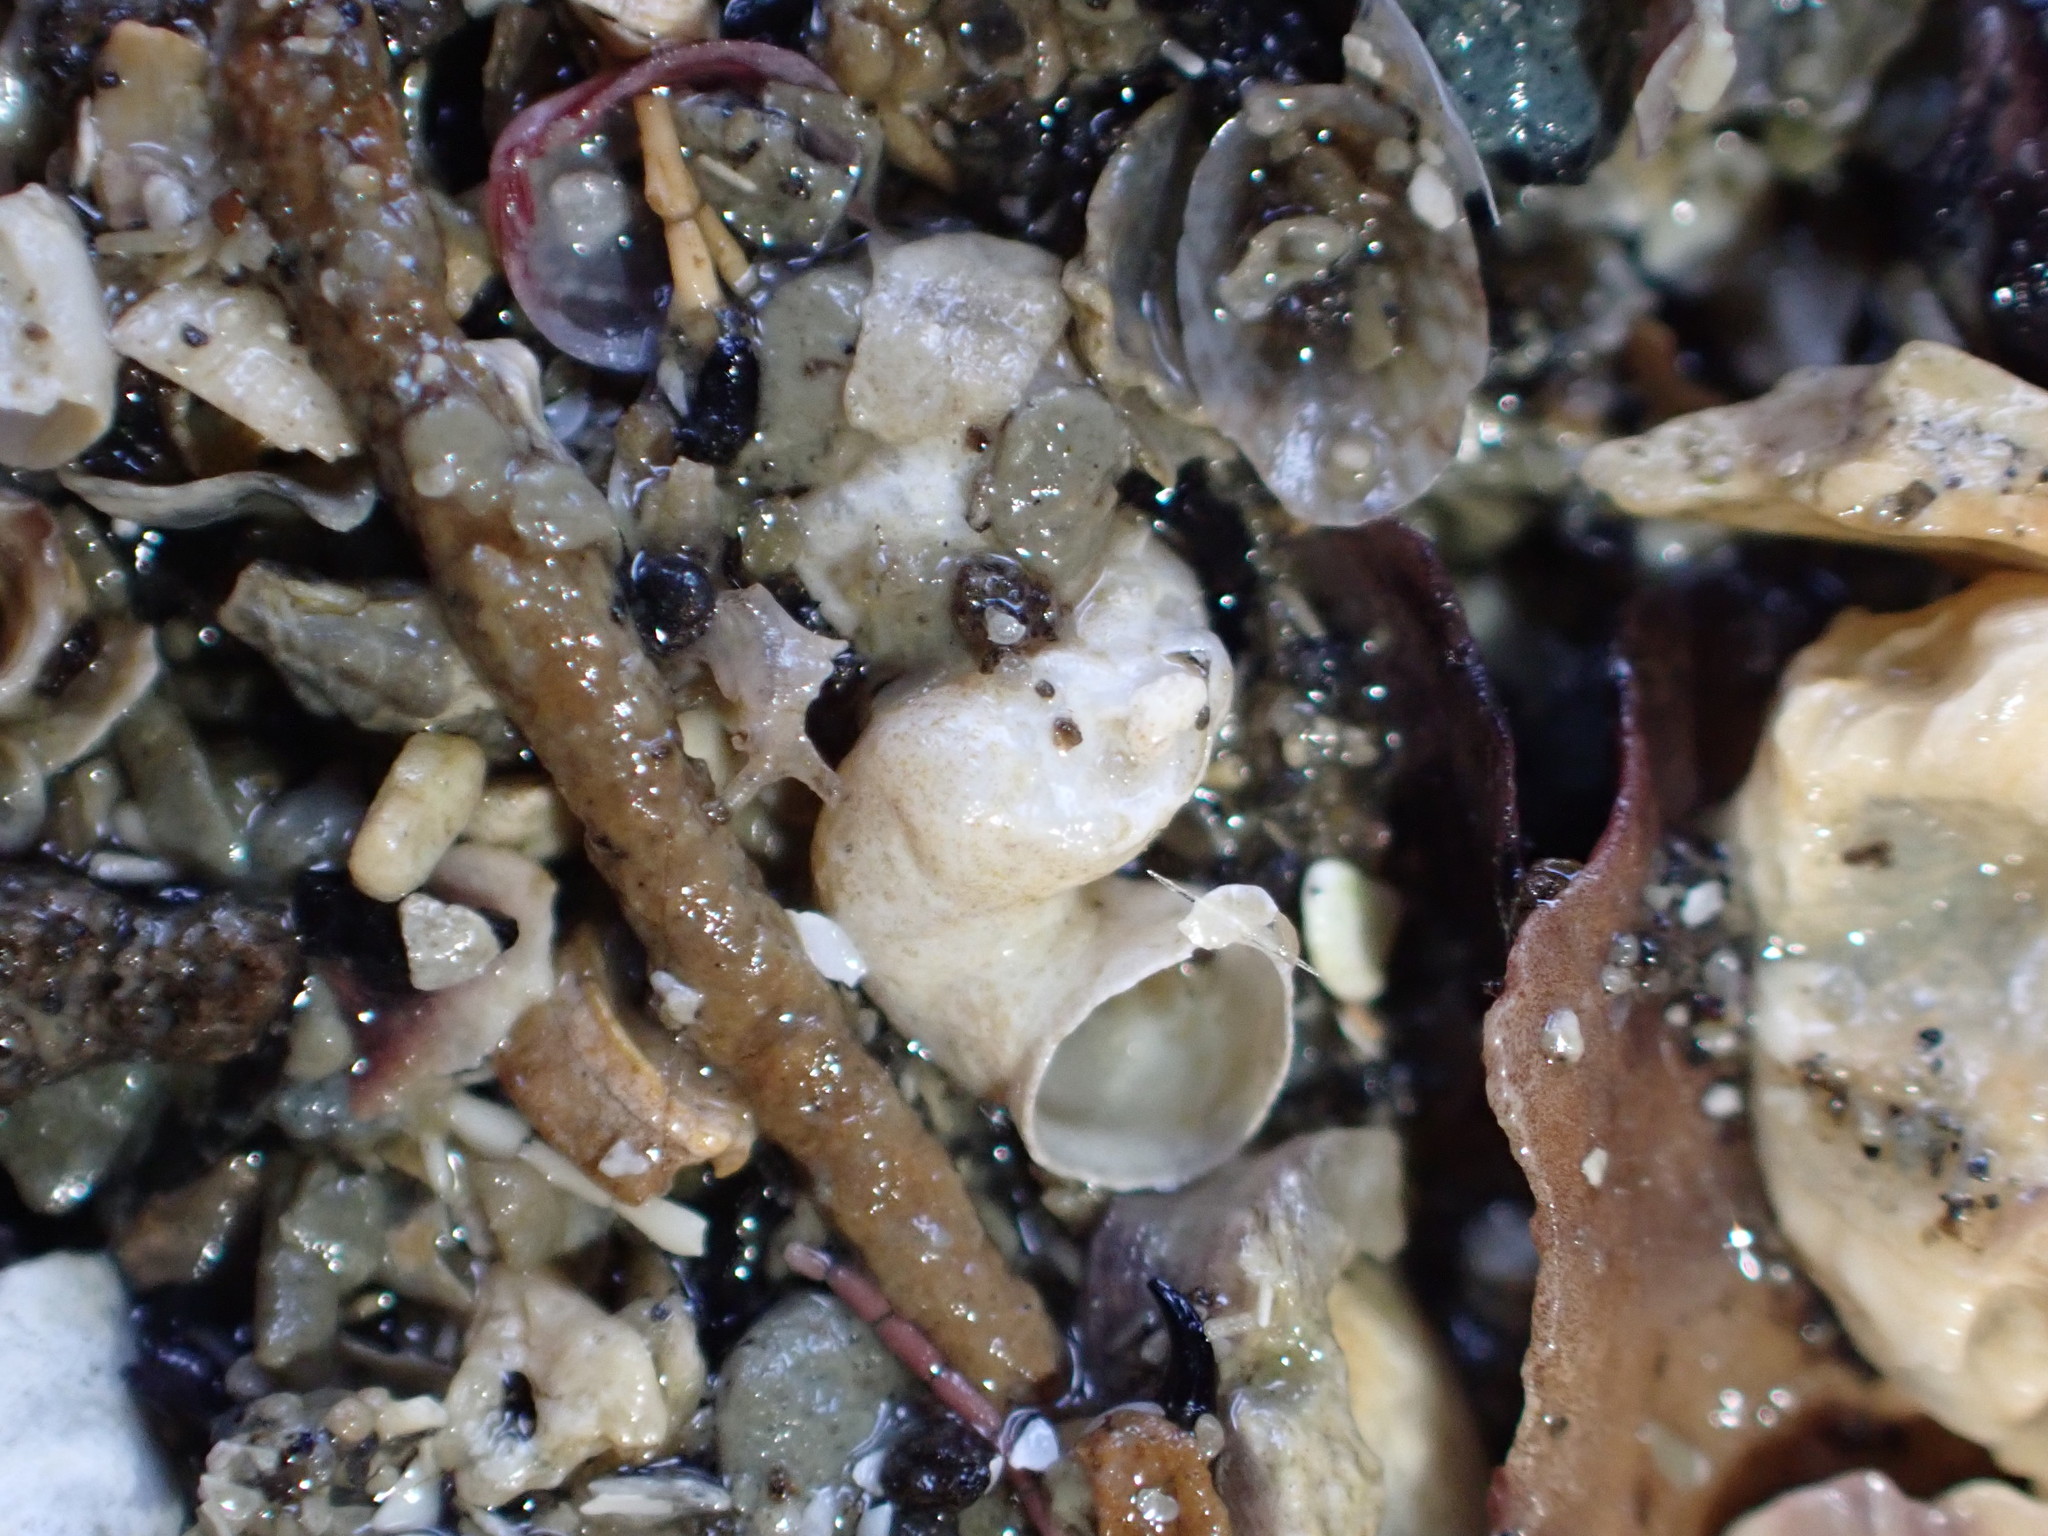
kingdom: Animalia
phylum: Mollusca
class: Gastropoda
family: Siliquariidae
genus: Stephopoma
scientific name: Stephopoma roseum
